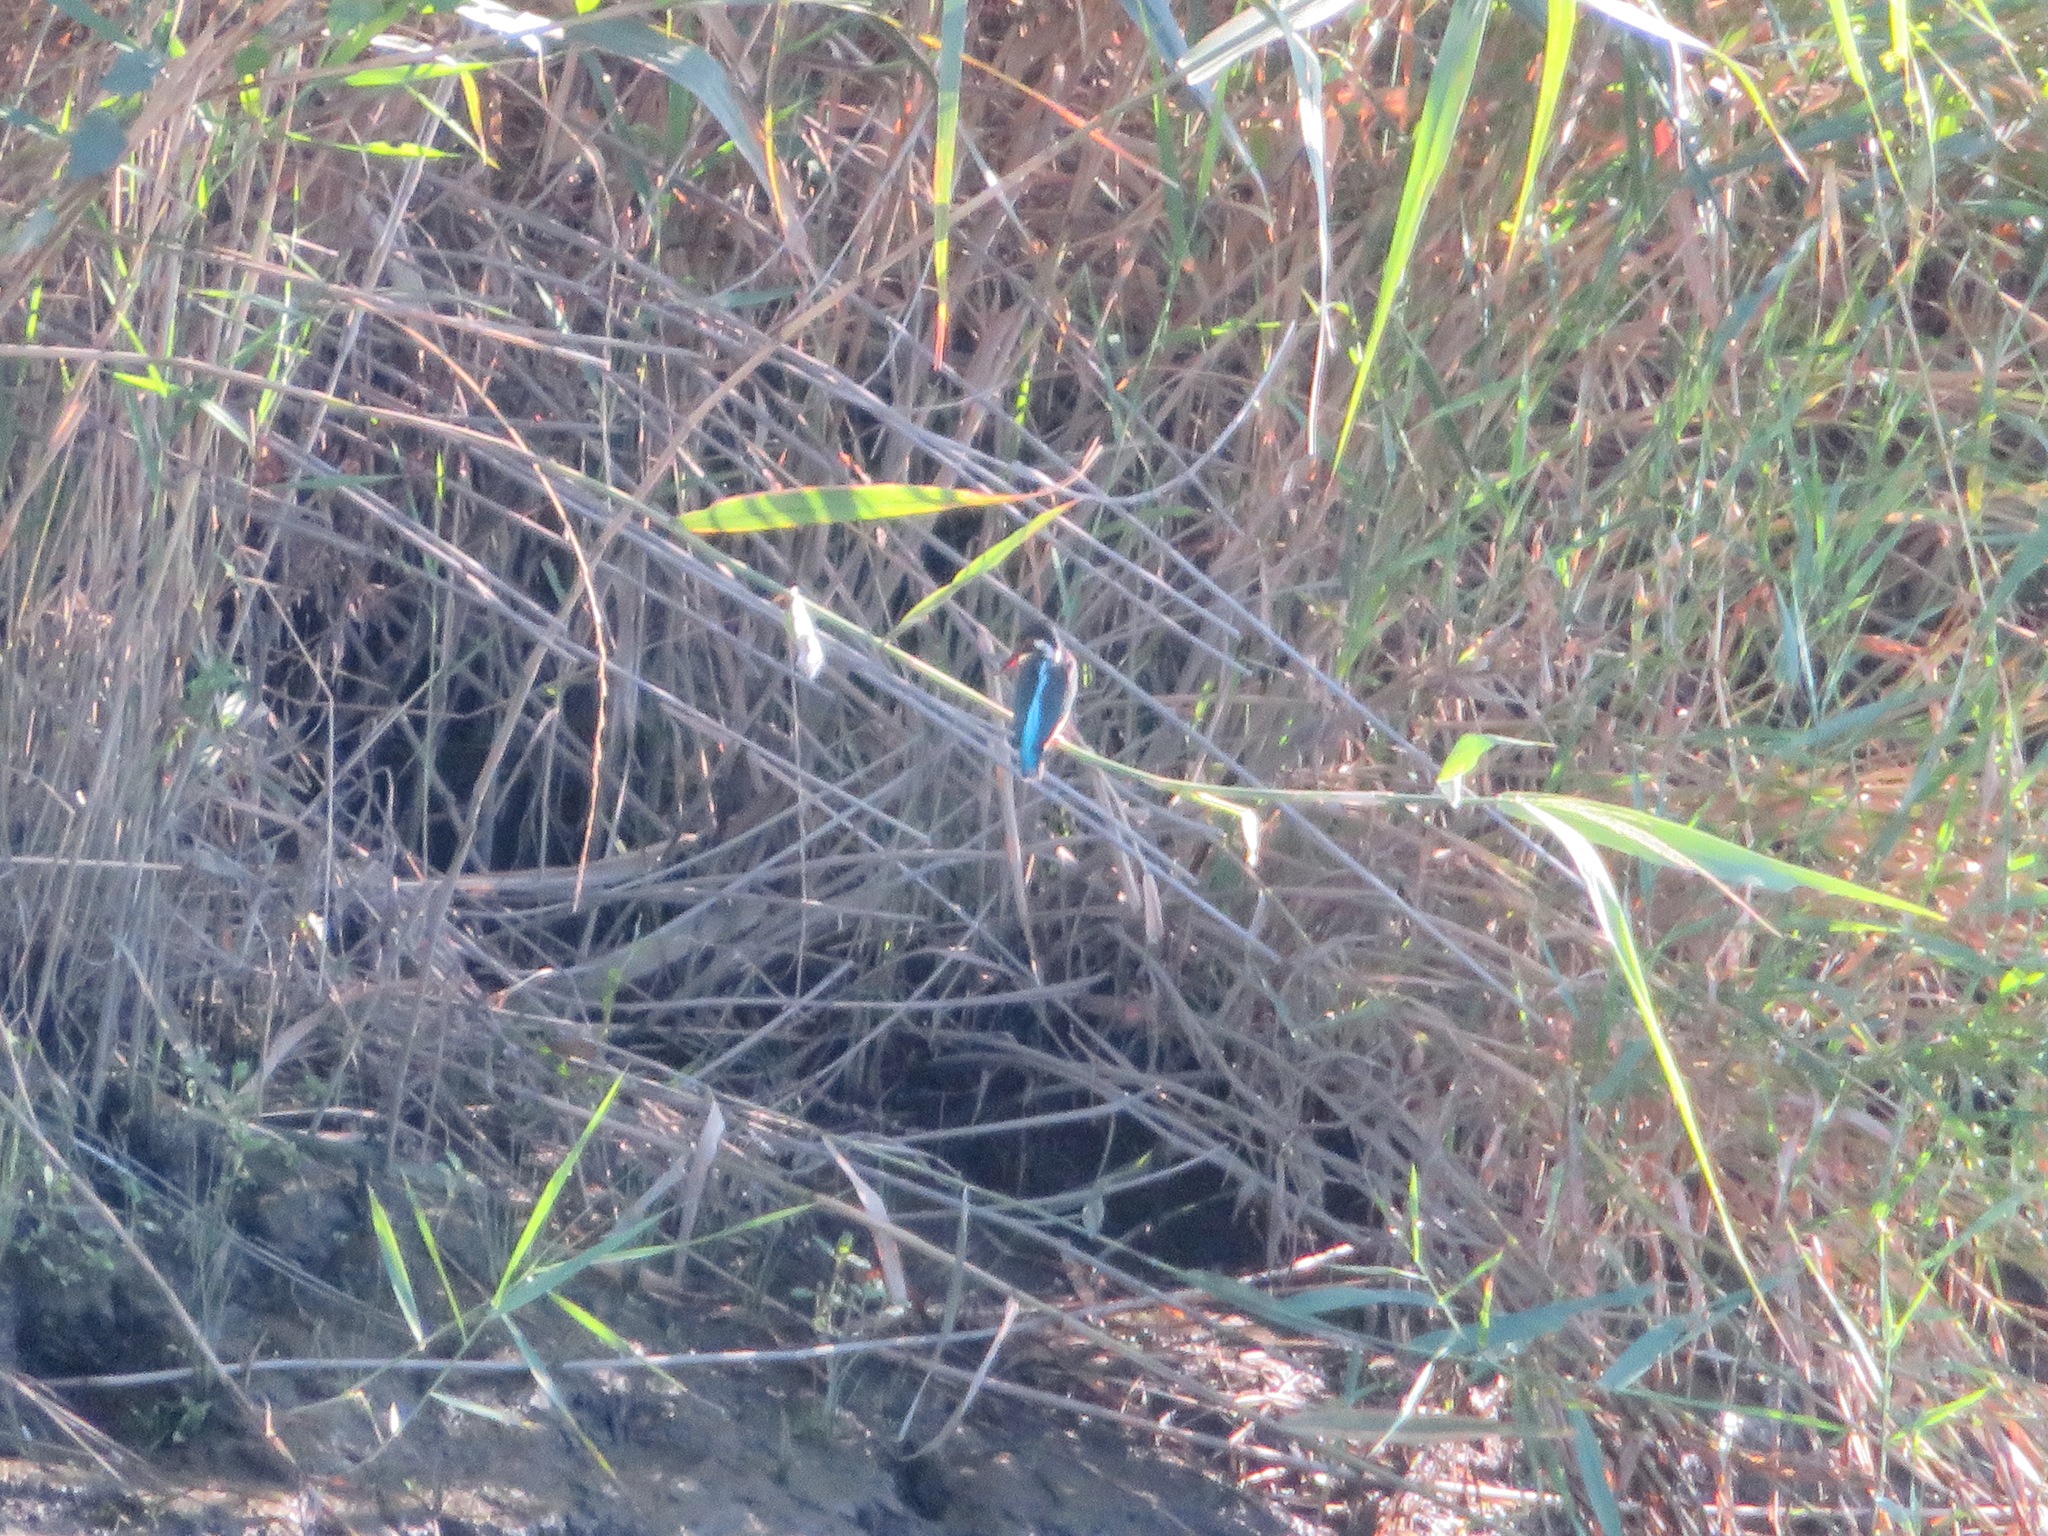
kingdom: Animalia
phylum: Chordata
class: Aves
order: Coraciiformes
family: Alcedinidae
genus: Alcedo
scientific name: Alcedo atthis
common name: Common kingfisher
